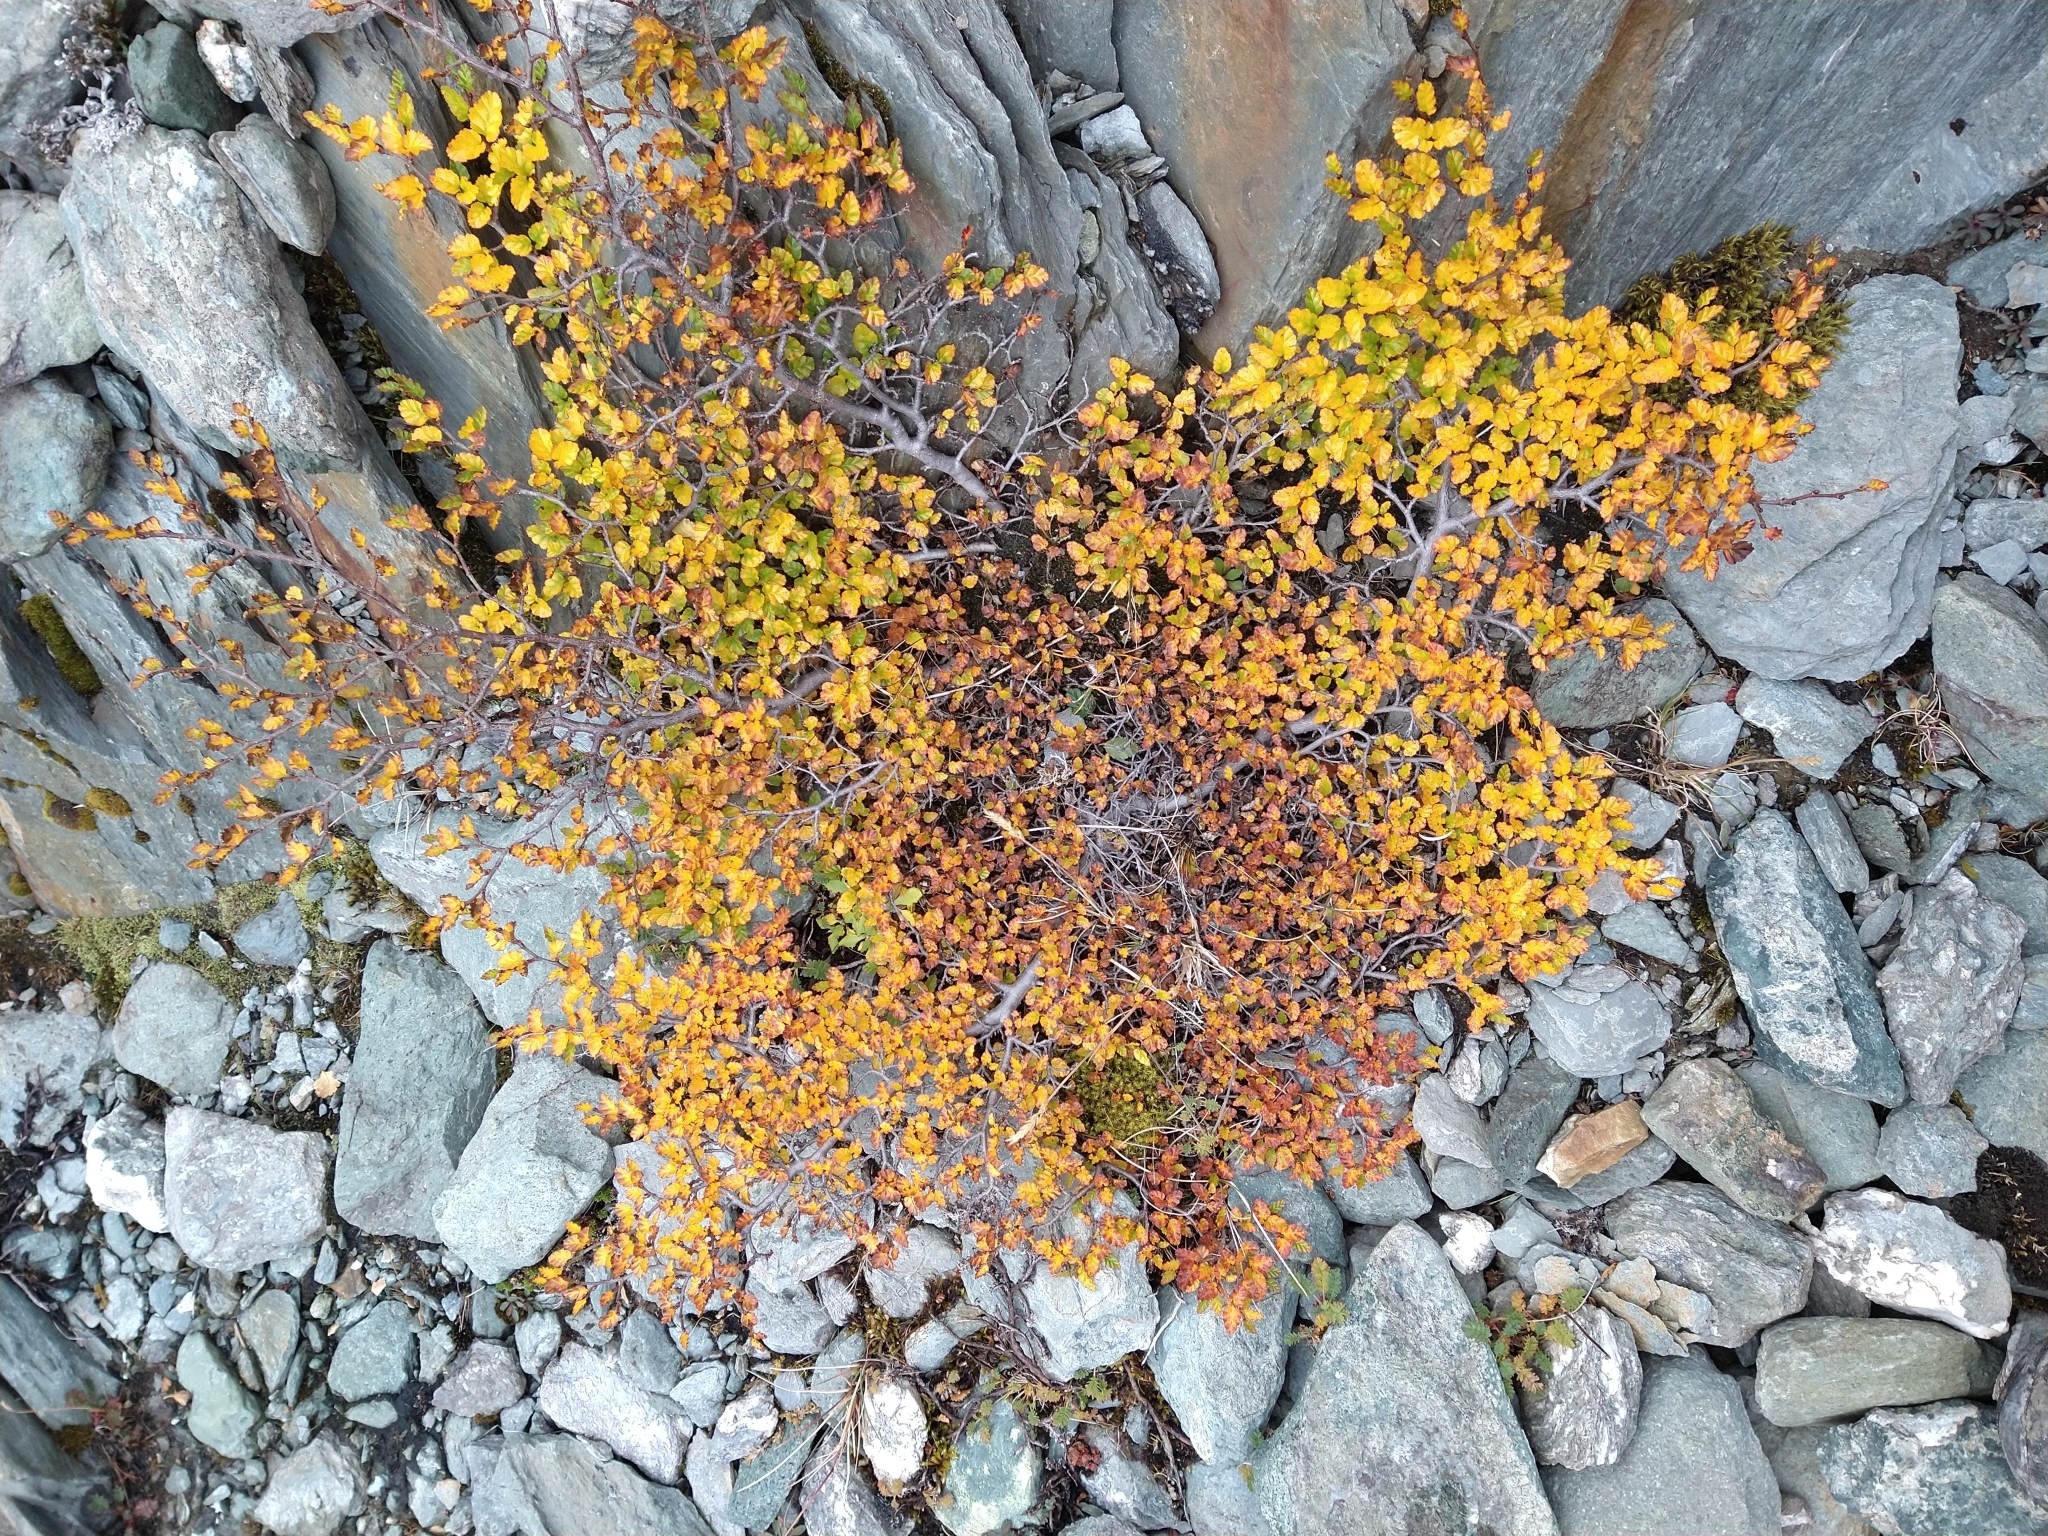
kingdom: Plantae
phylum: Tracheophyta
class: Magnoliopsida
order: Fagales
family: Nothofagaceae
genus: Nothofagus
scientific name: Nothofagus antarctica
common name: Antarctic beech
